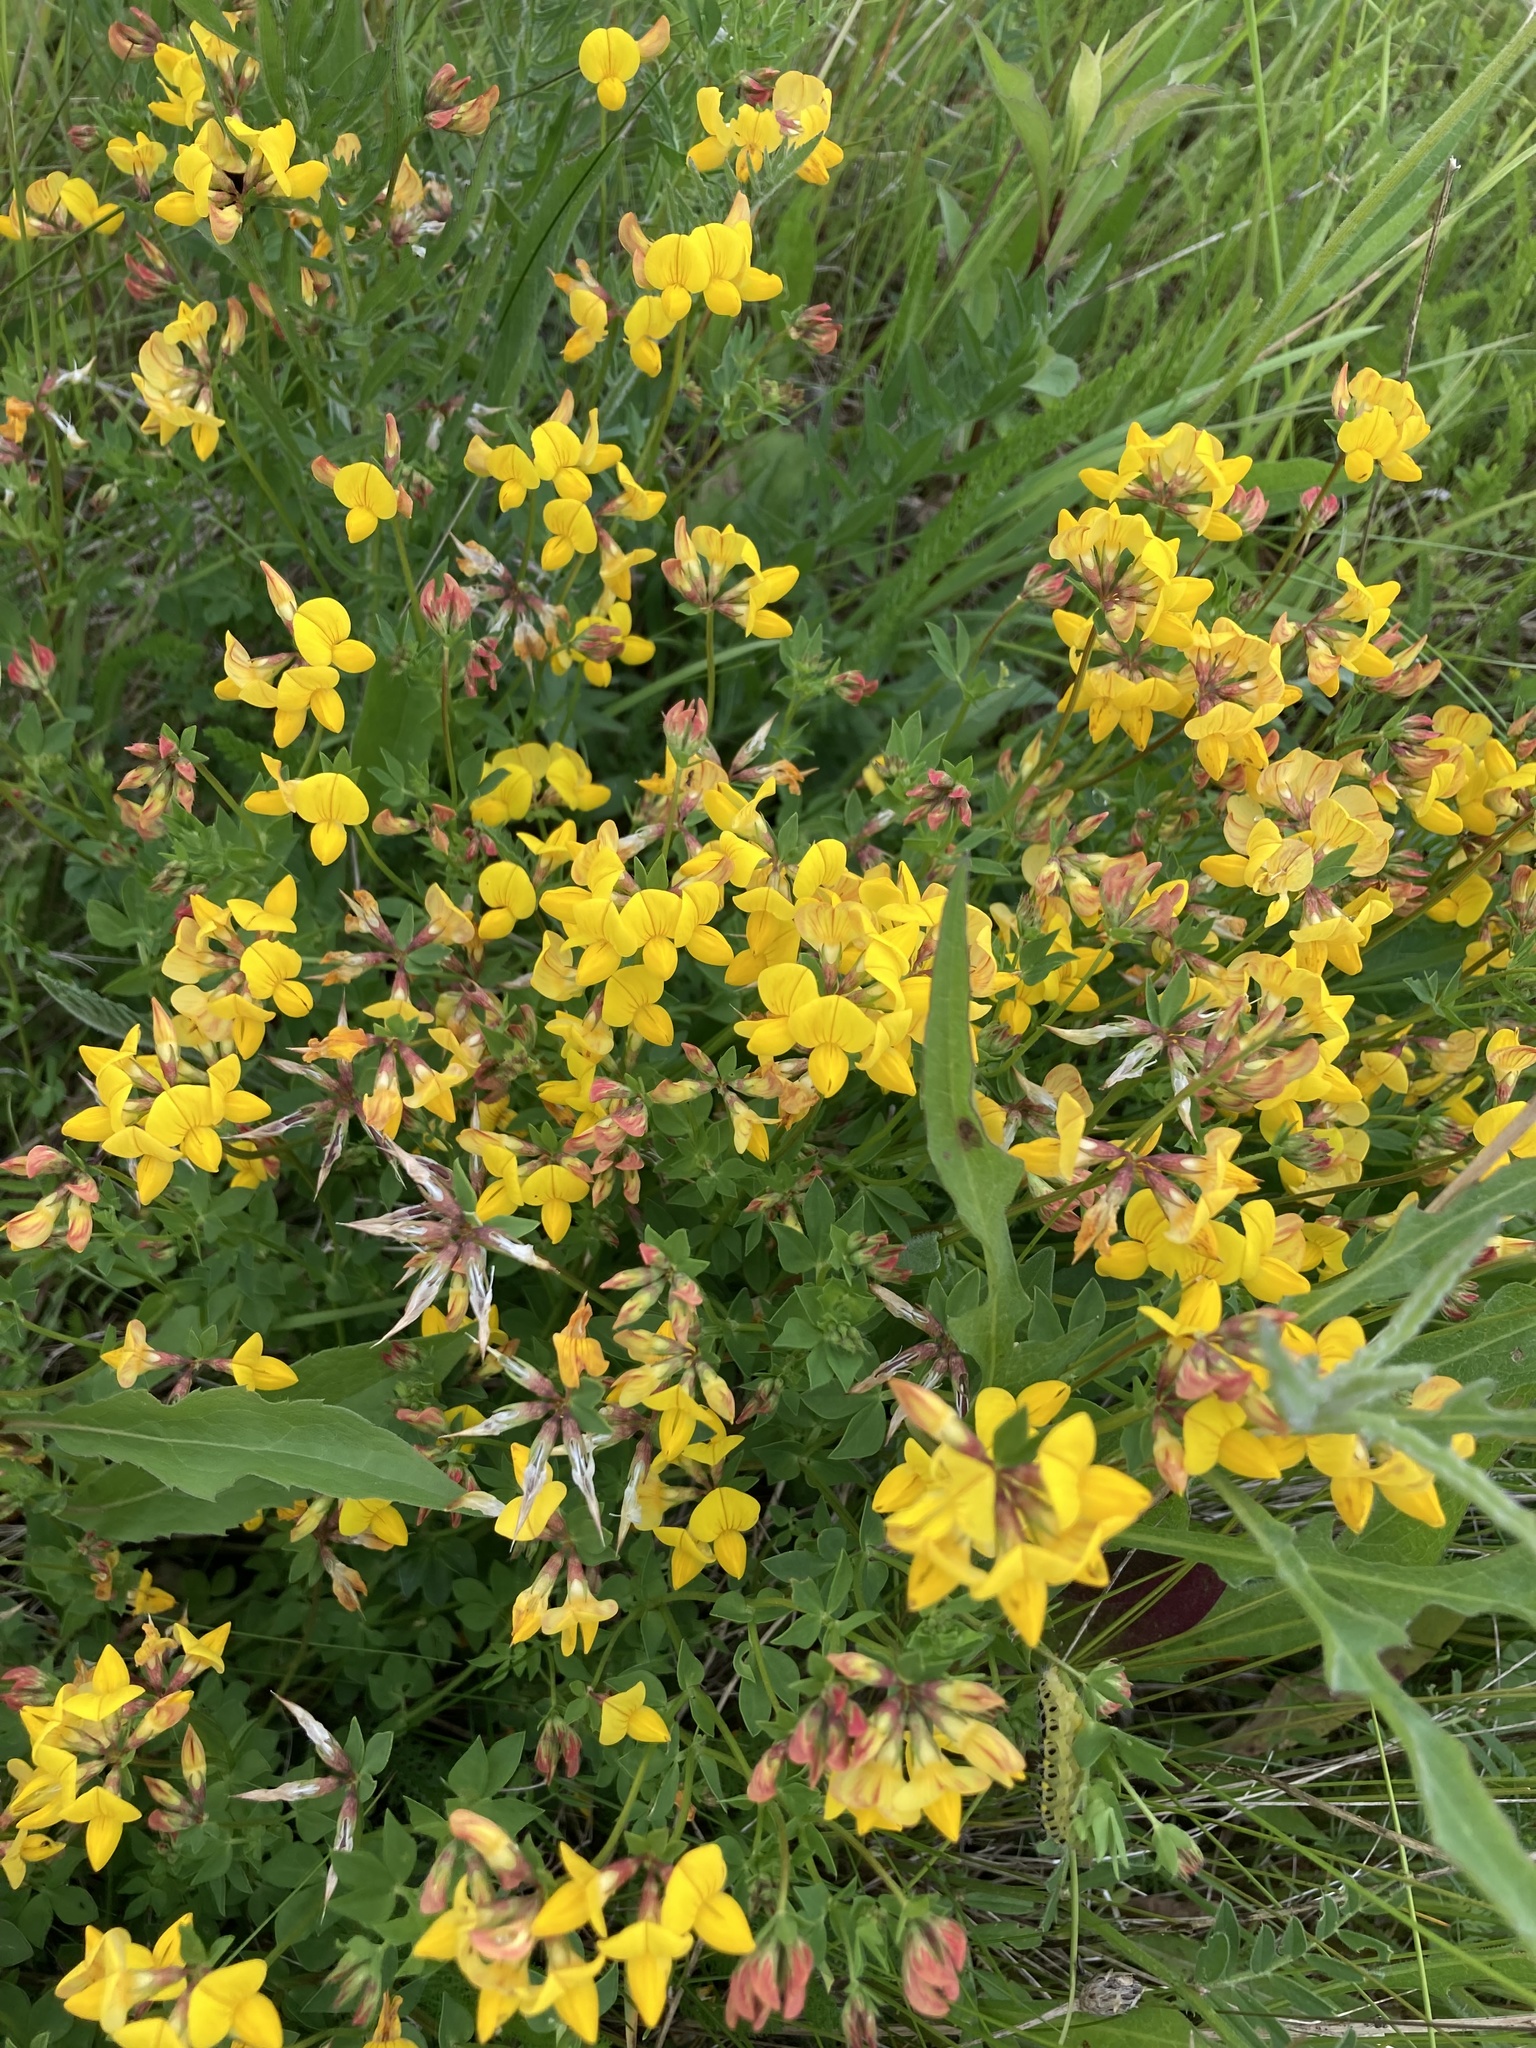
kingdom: Plantae
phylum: Tracheophyta
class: Magnoliopsida
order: Fabales
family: Fabaceae
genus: Lotus
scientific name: Lotus corniculatus
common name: Common bird's-foot-trefoil
